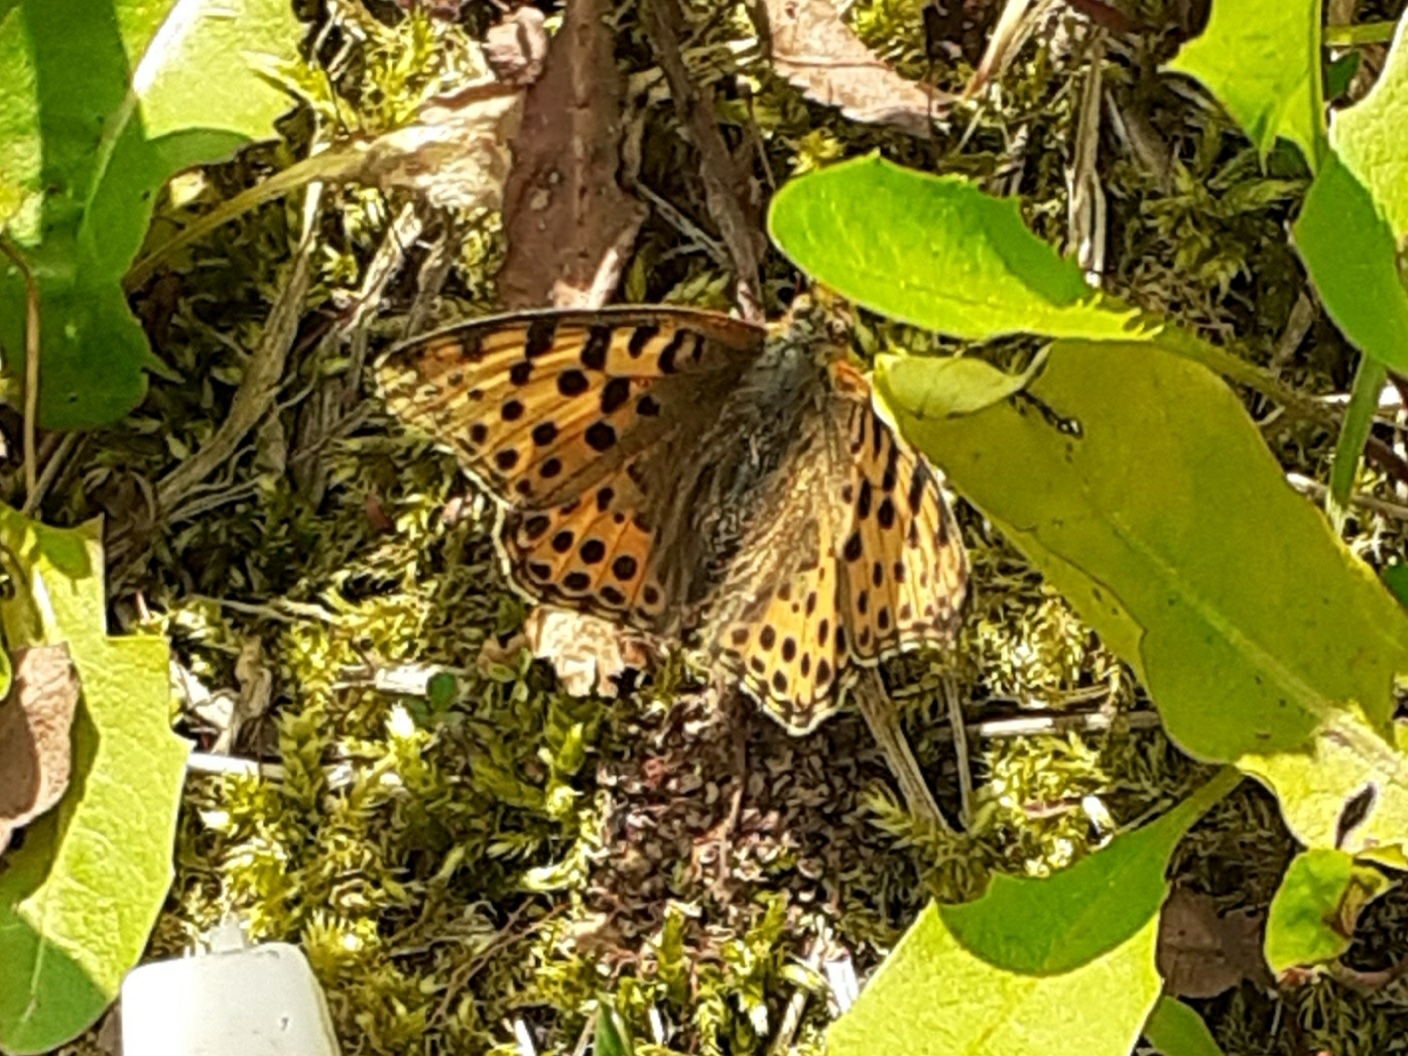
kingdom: Animalia
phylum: Arthropoda
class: Insecta
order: Lepidoptera
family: Nymphalidae
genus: Issoria
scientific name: Issoria lathonia
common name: Queen of spain fritillary
